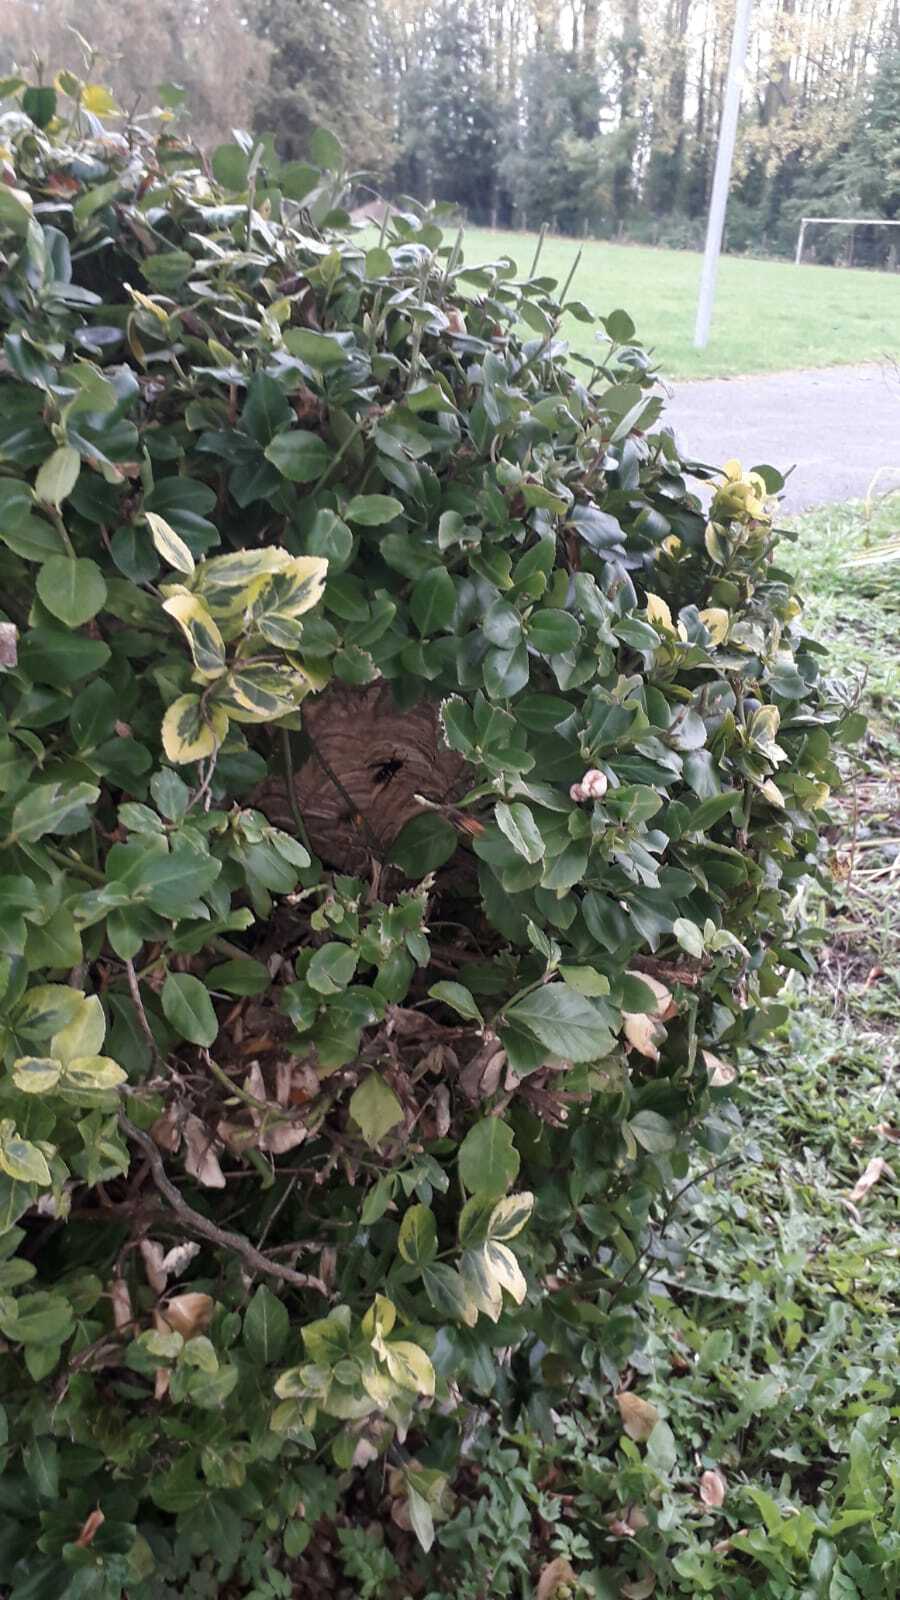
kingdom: Animalia
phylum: Arthropoda
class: Insecta
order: Hymenoptera
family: Vespidae
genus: Vespa
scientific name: Vespa velutina
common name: Asian hornet
